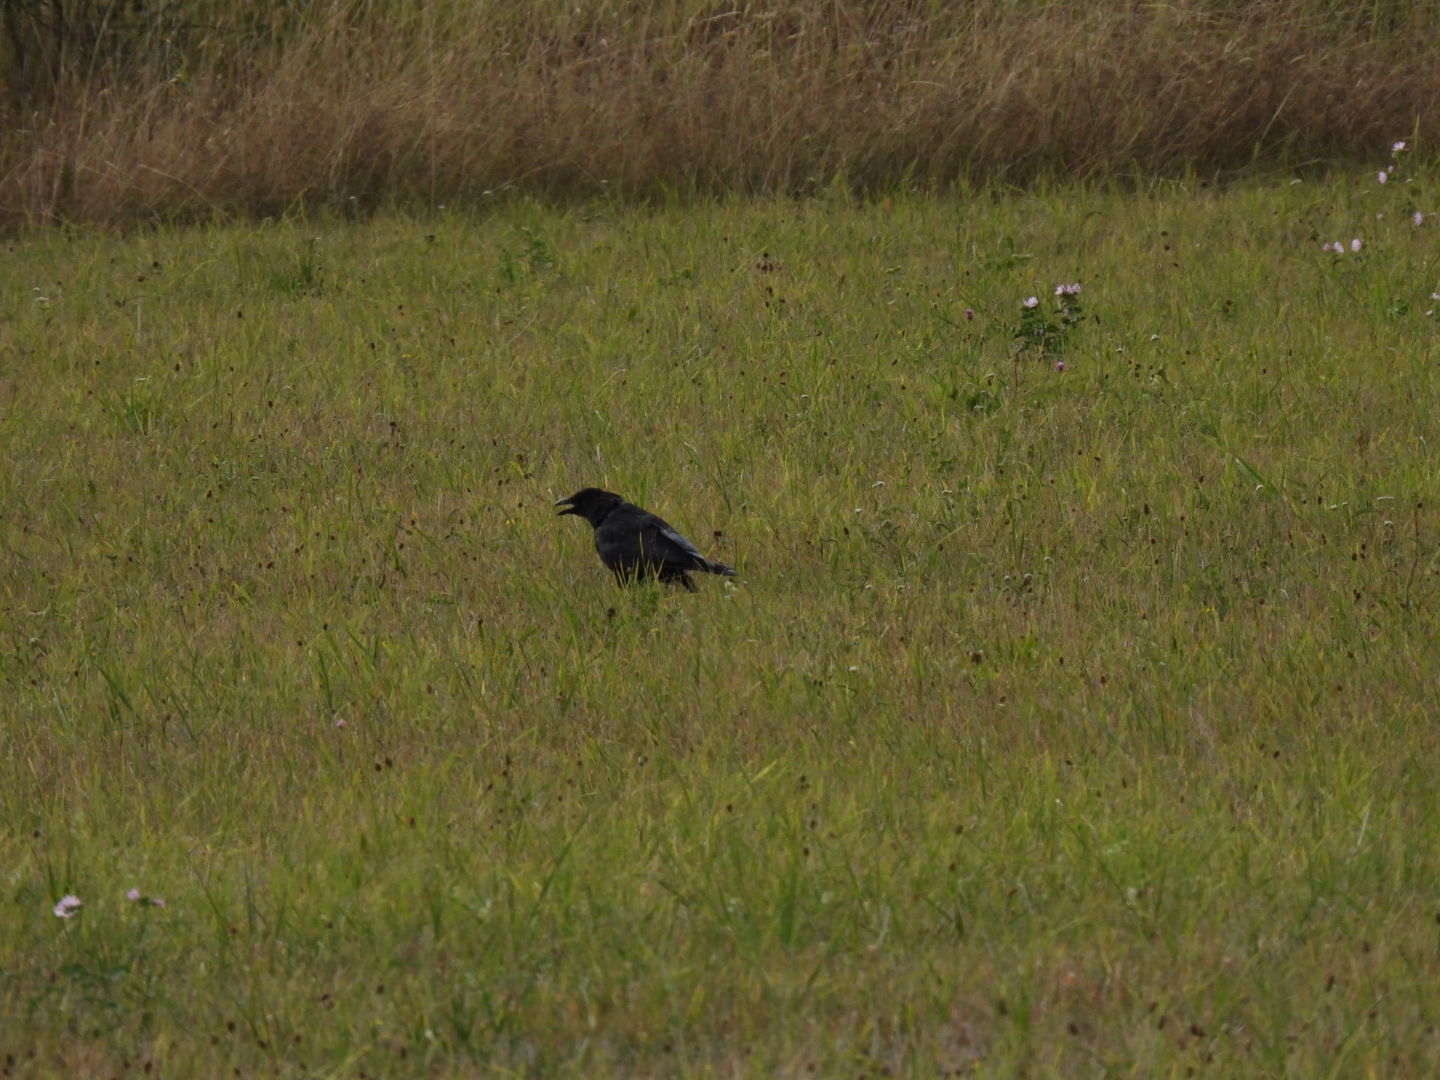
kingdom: Animalia
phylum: Chordata
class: Aves
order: Passeriformes
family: Corvidae
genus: Corvus
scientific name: Corvus corone
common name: Carrion crow
